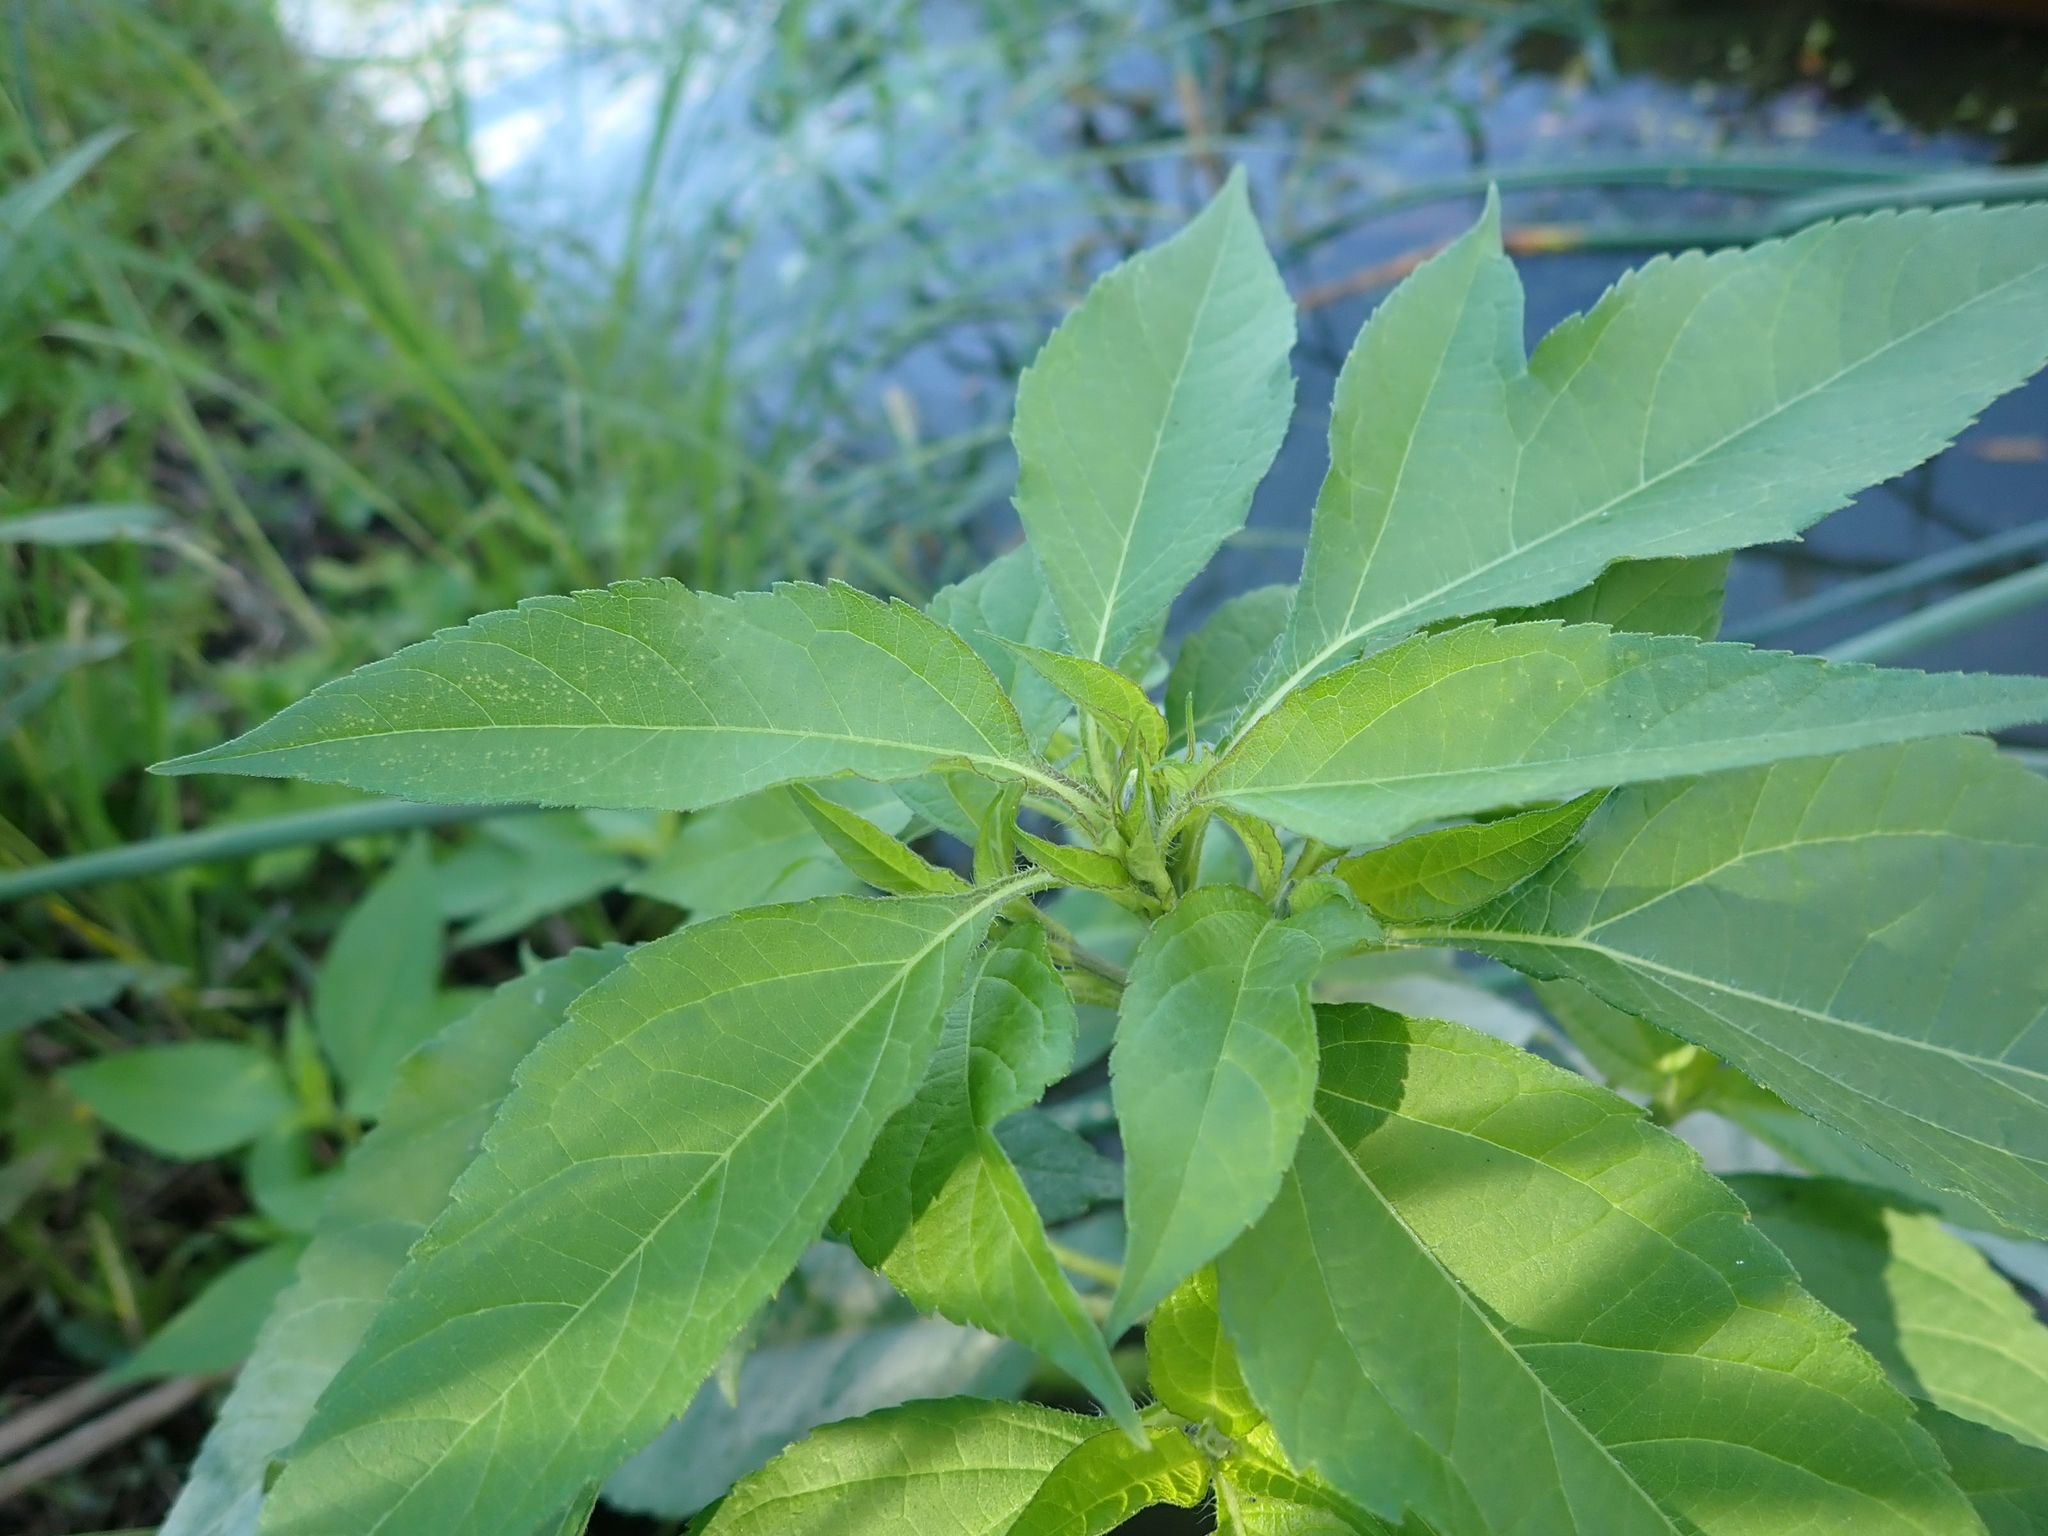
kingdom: Plantae
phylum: Tracheophyta
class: Magnoliopsida
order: Asterales
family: Asteraceae
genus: Ambrosia
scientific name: Ambrosia trifida
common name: Giant ragweed
